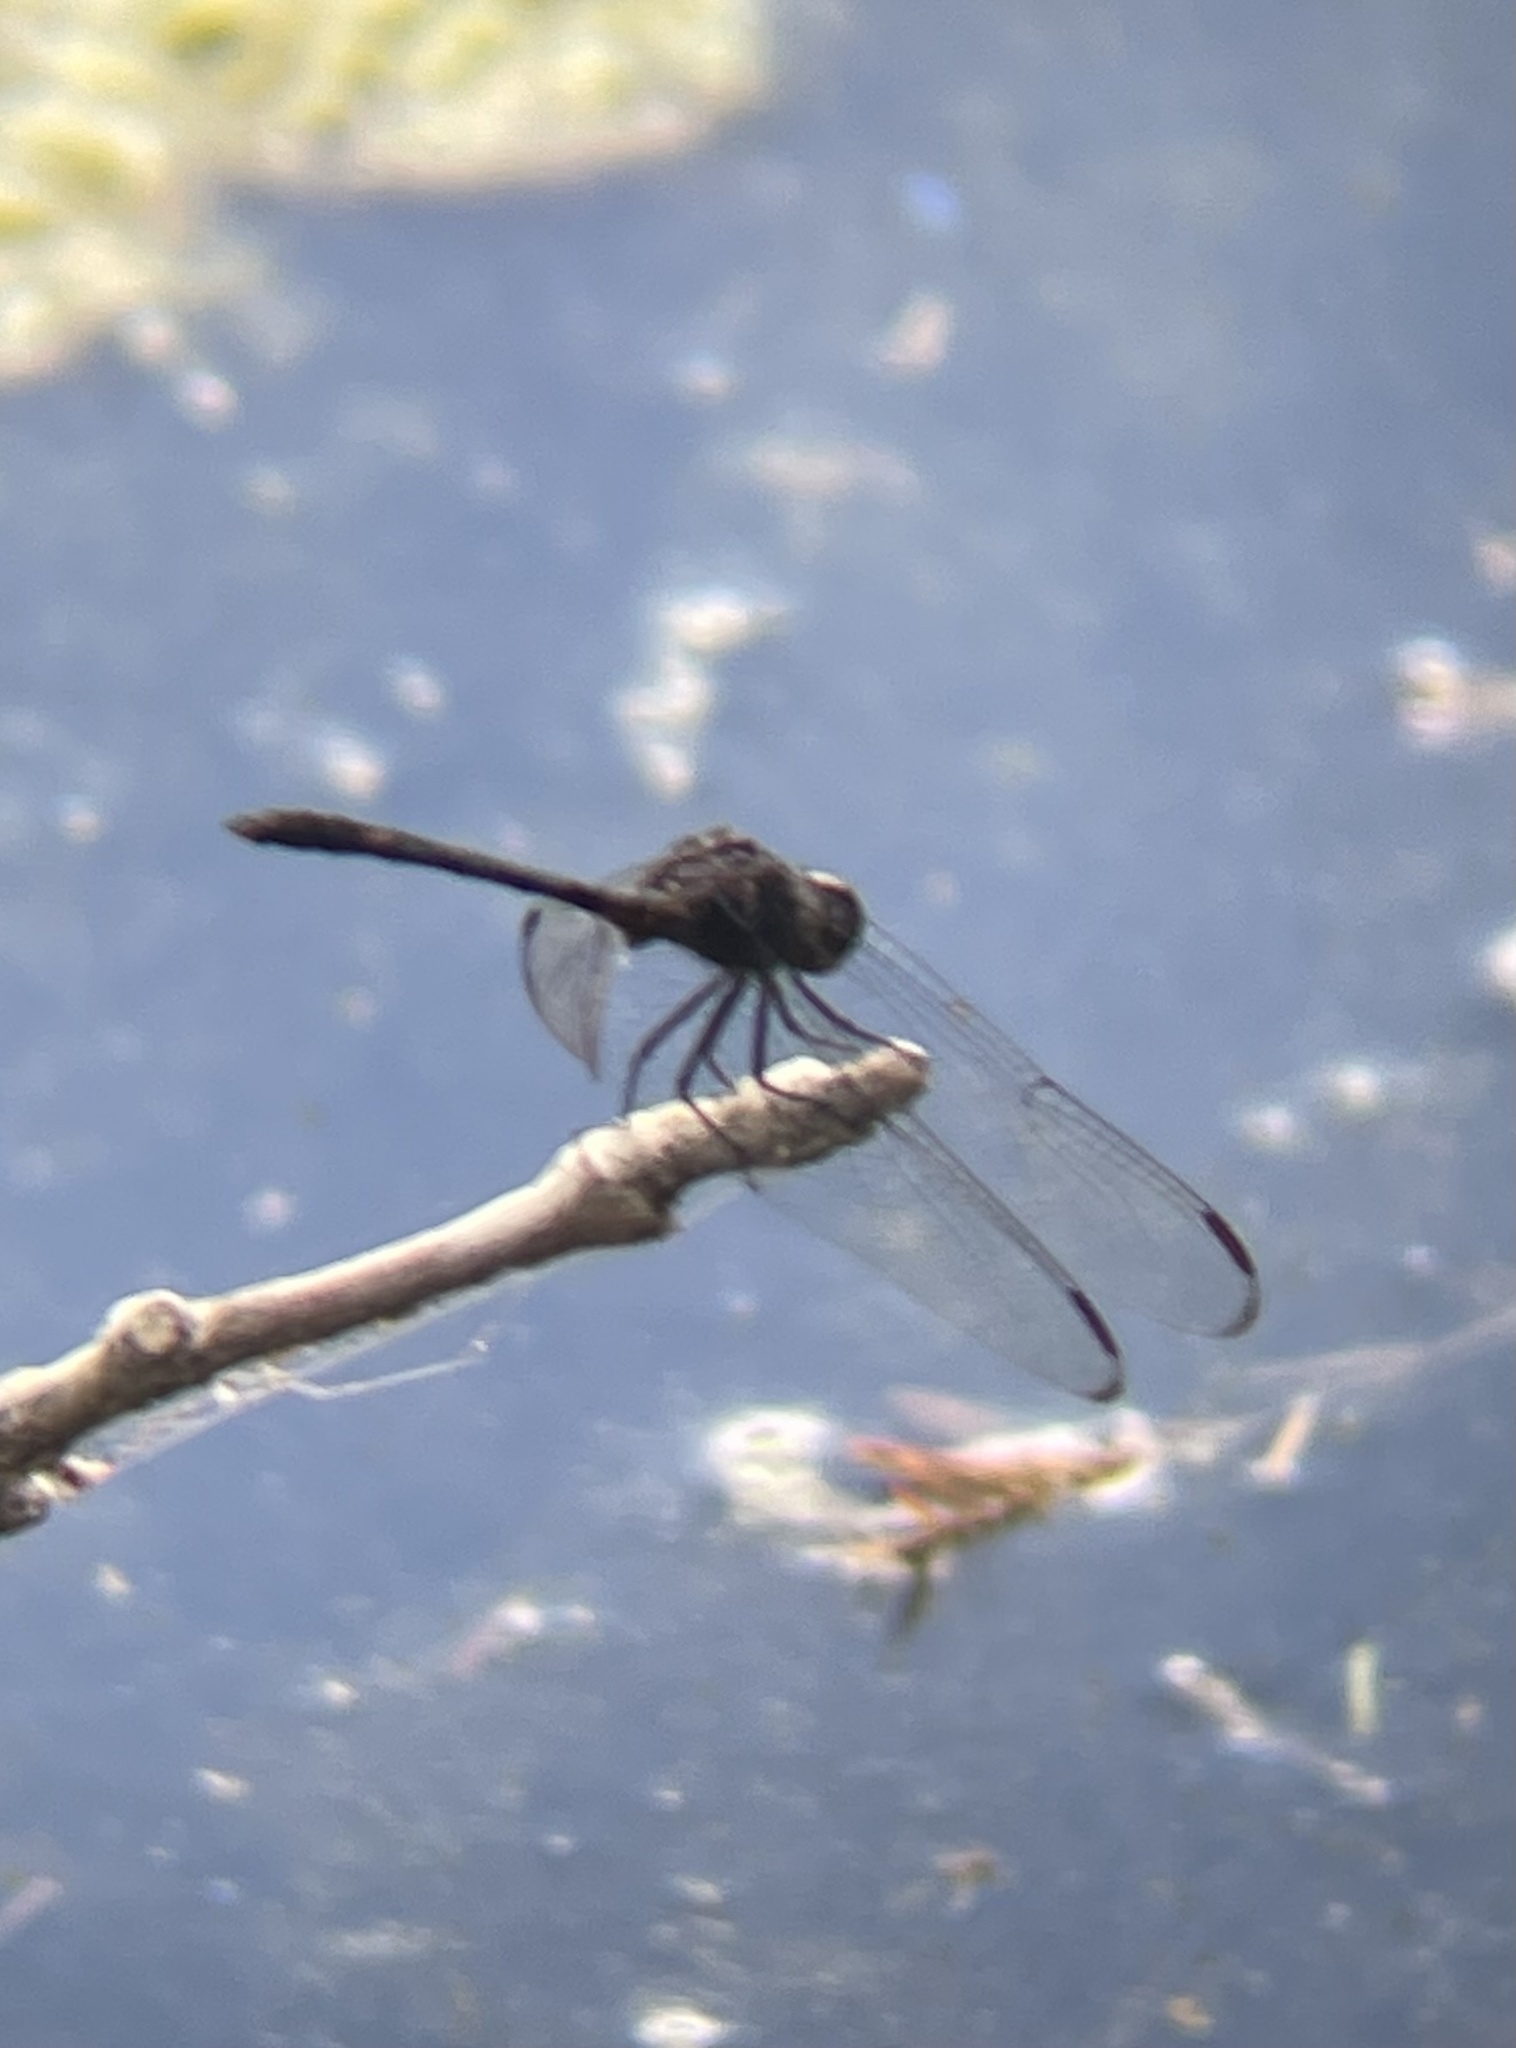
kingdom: Animalia
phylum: Arthropoda
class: Insecta
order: Odonata
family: Libellulidae
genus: Dythemis
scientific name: Dythemis nigrescens
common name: Black setwing
